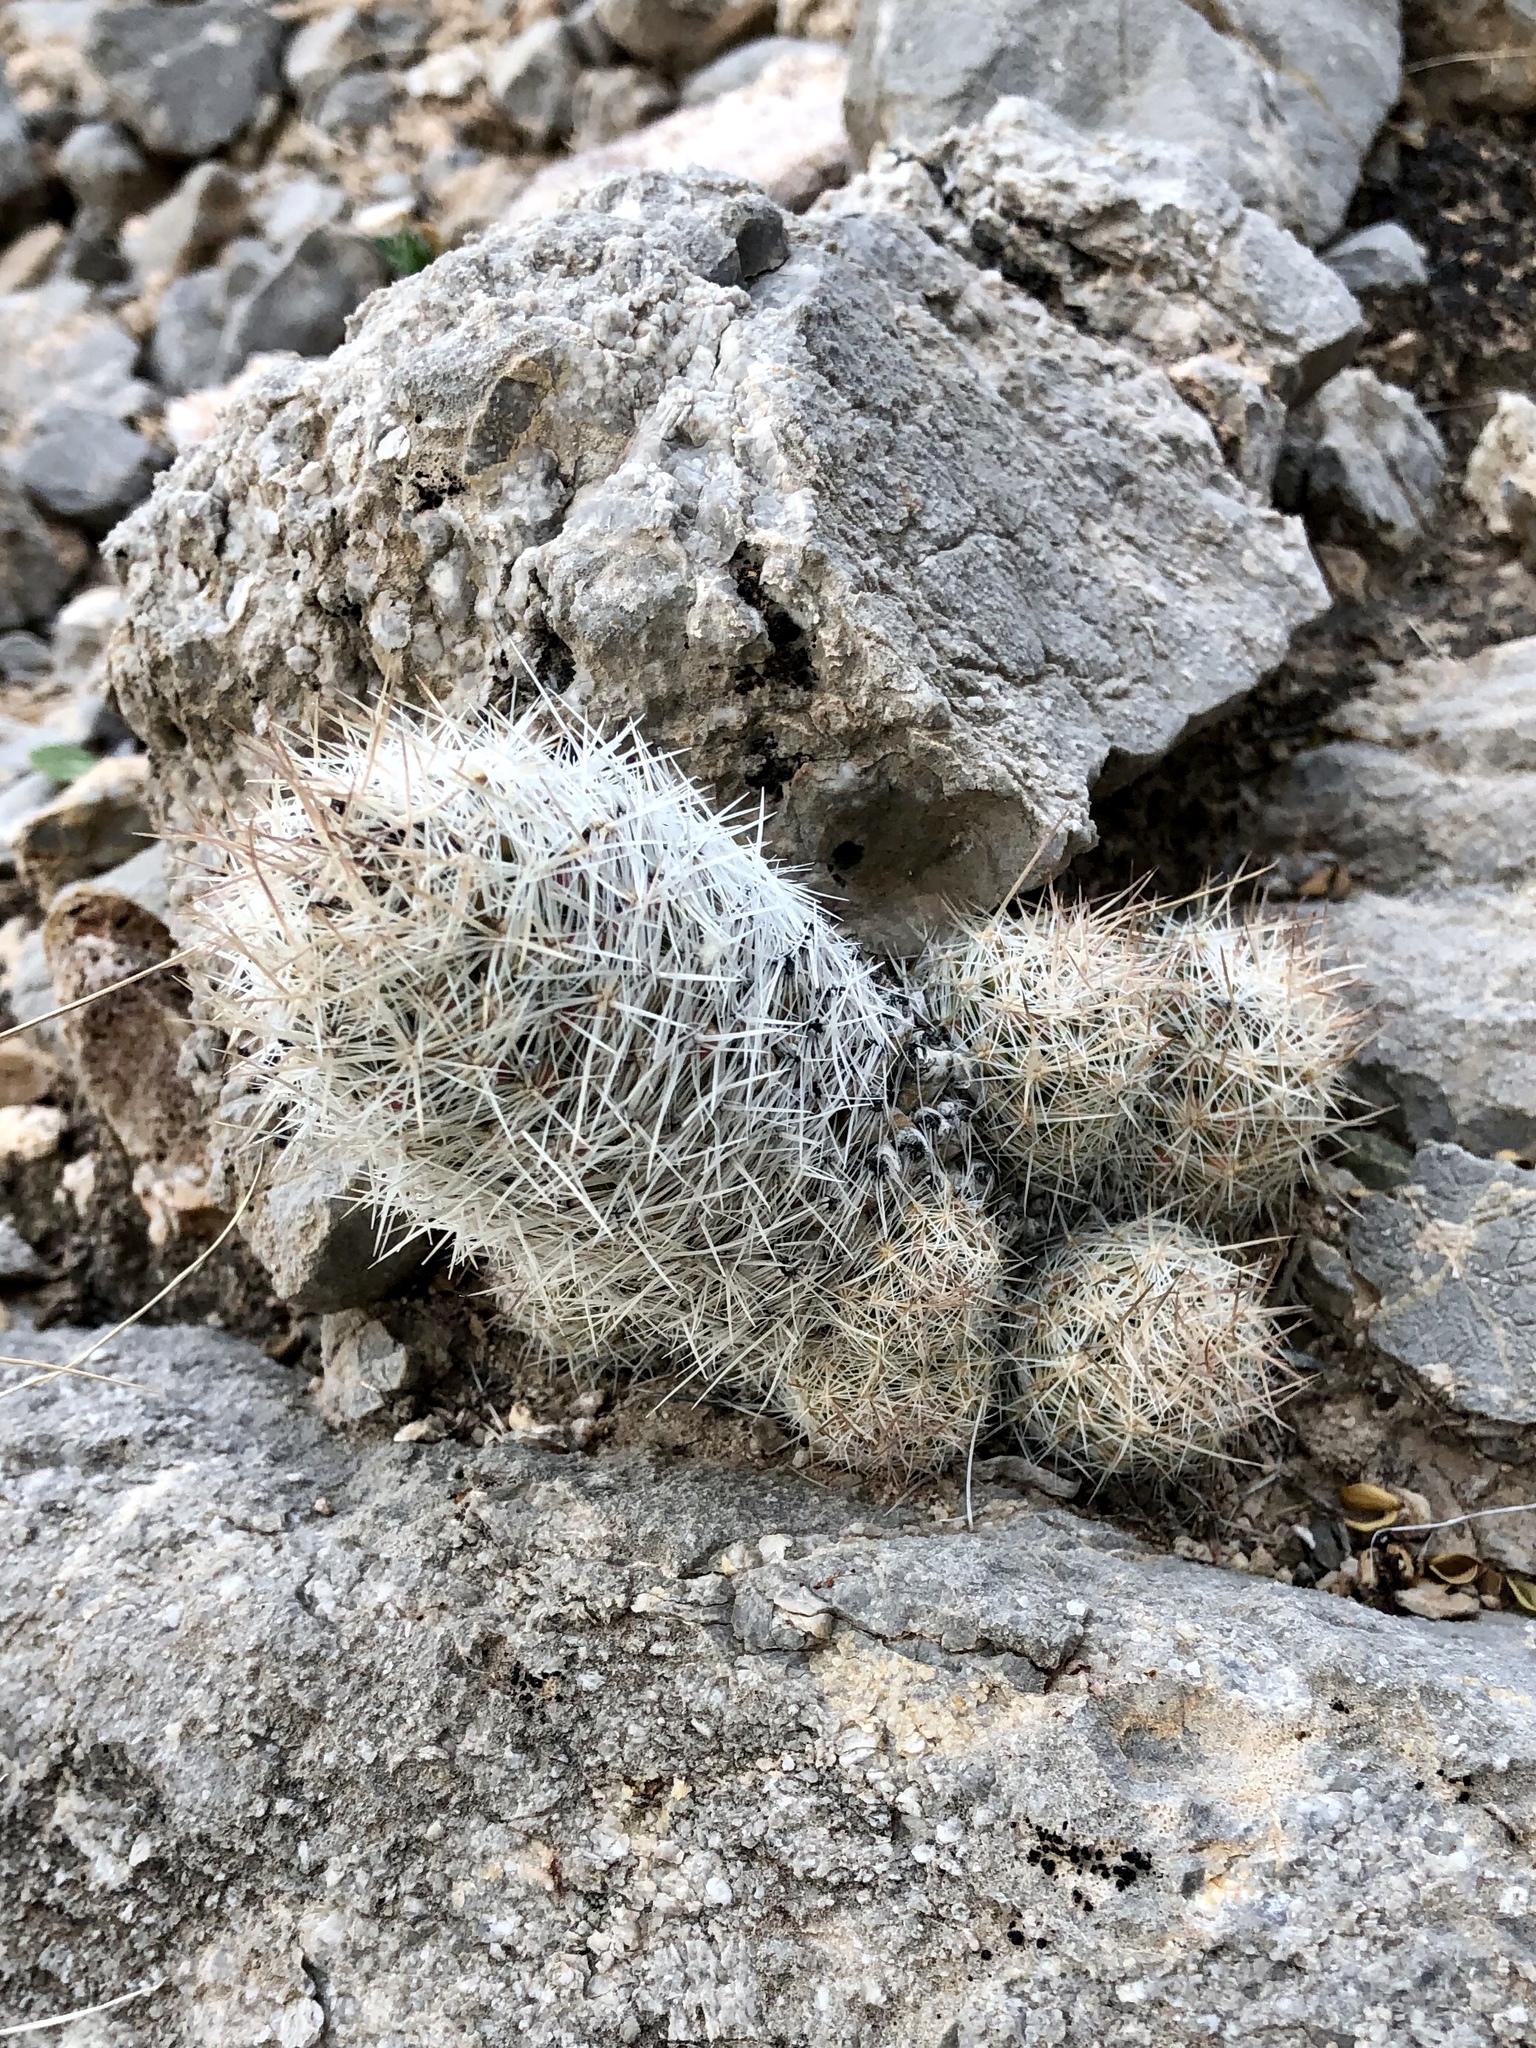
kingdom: Plantae
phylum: Tracheophyta
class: Magnoliopsida
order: Caryophyllales
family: Cactaceae
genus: Pelecyphora
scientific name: Pelecyphora tuberculosa
